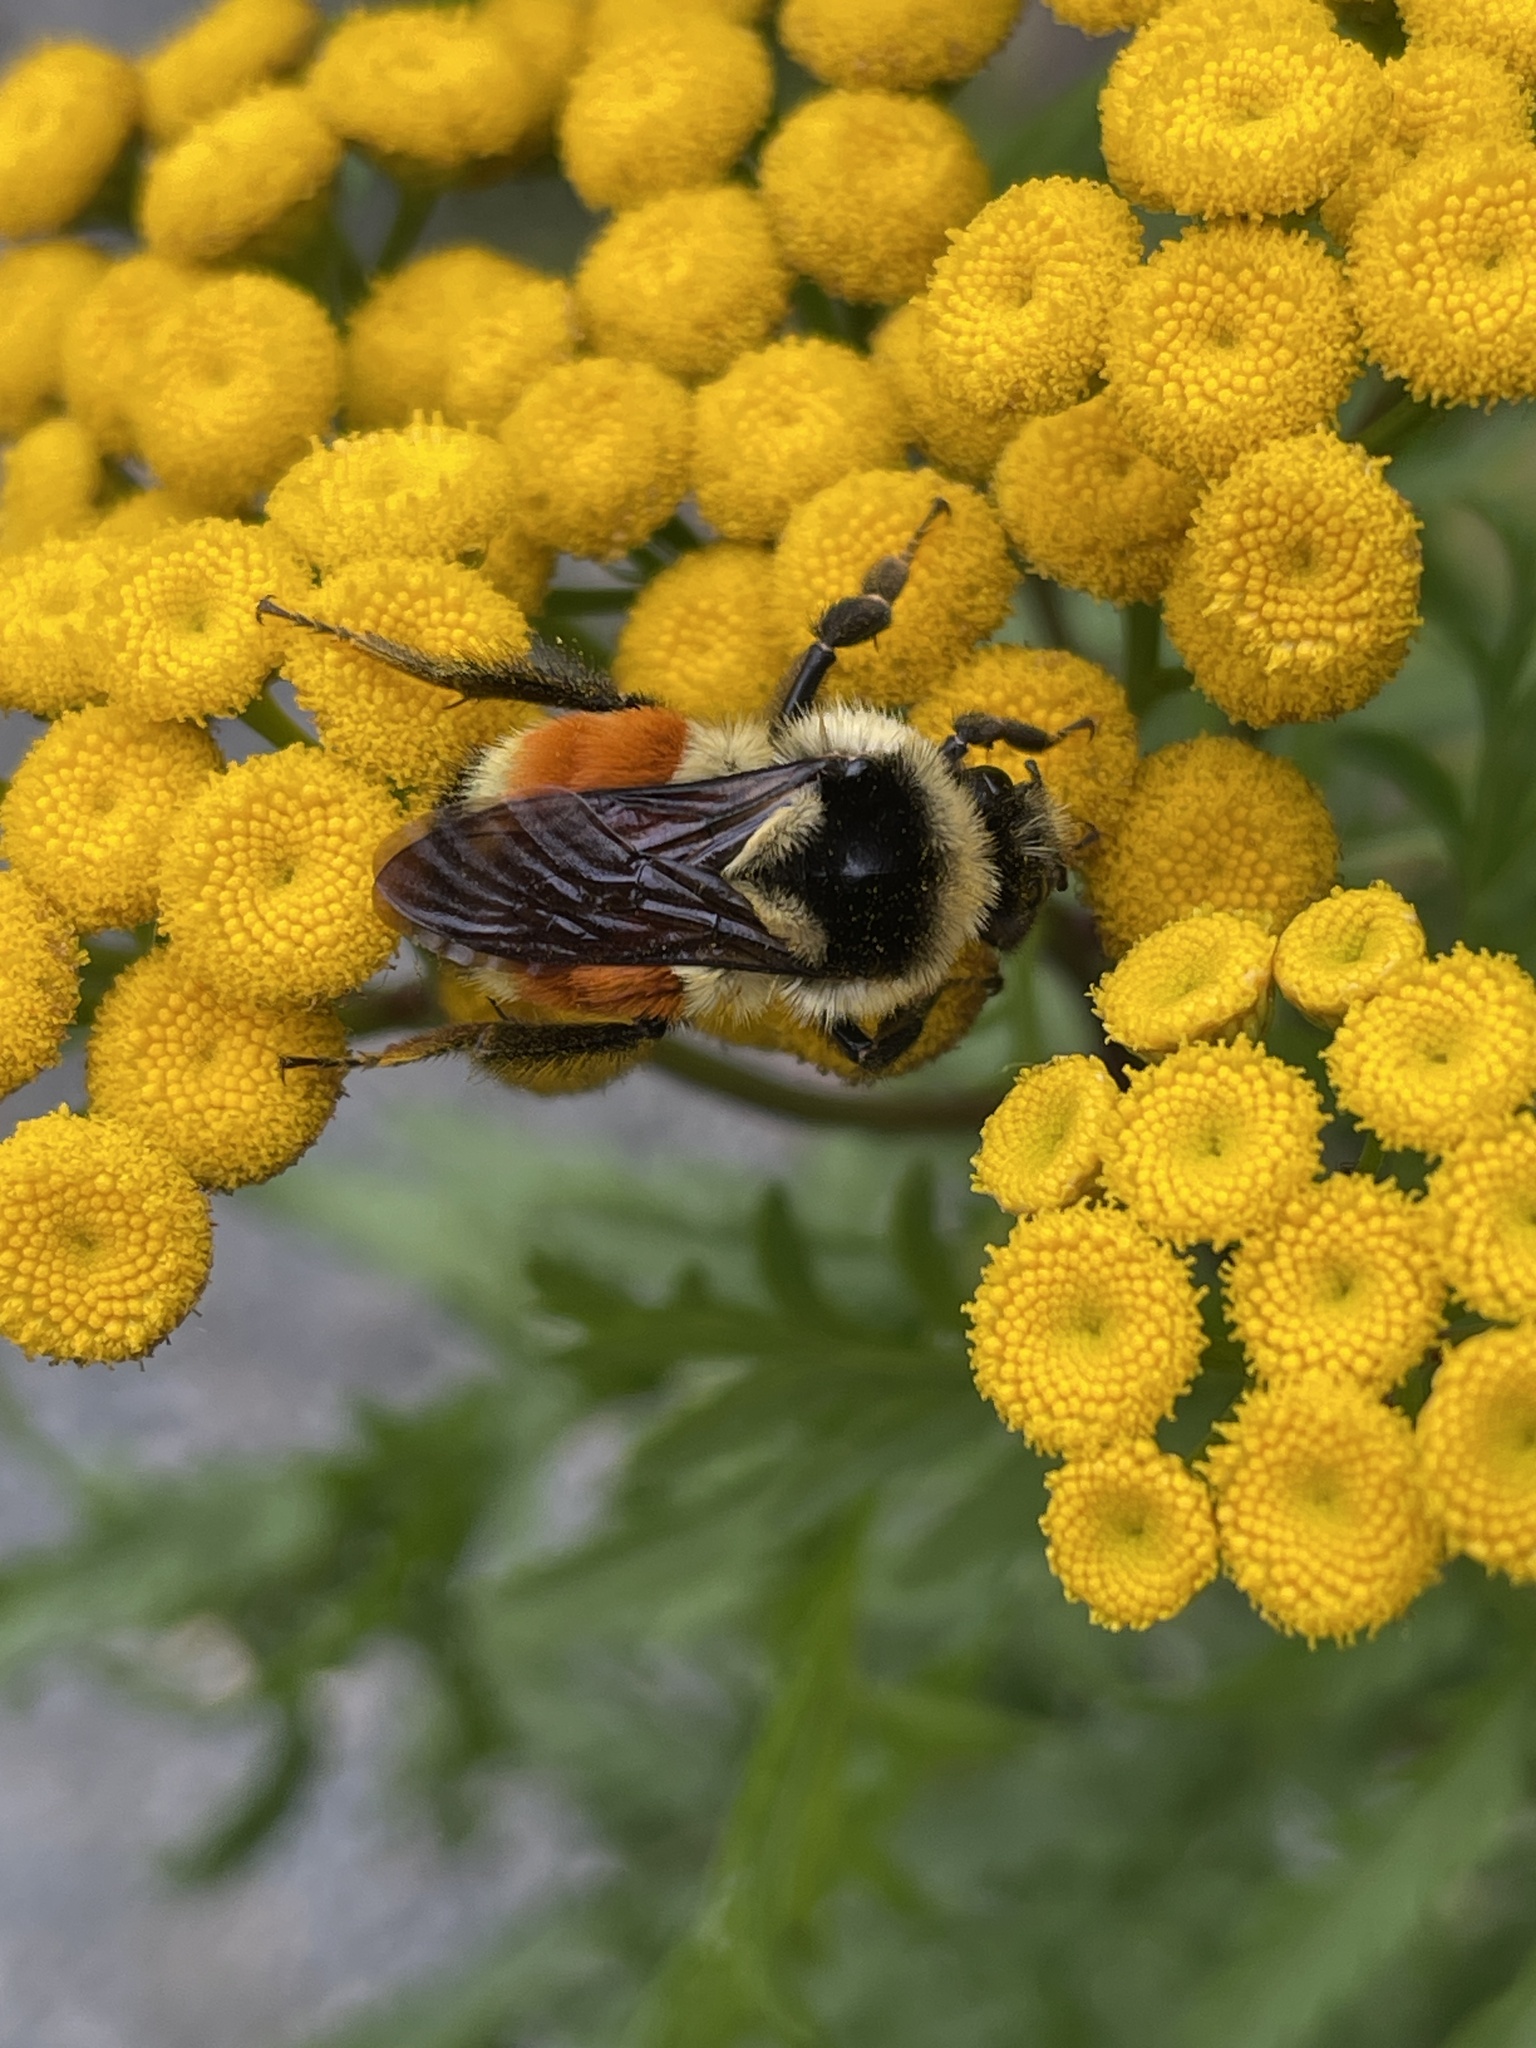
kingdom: Animalia
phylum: Arthropoda
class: Insecta
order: Hymenoptera
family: Apidae
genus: Bombus
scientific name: Bombus ternarius
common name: Tri-colored bumble bee
